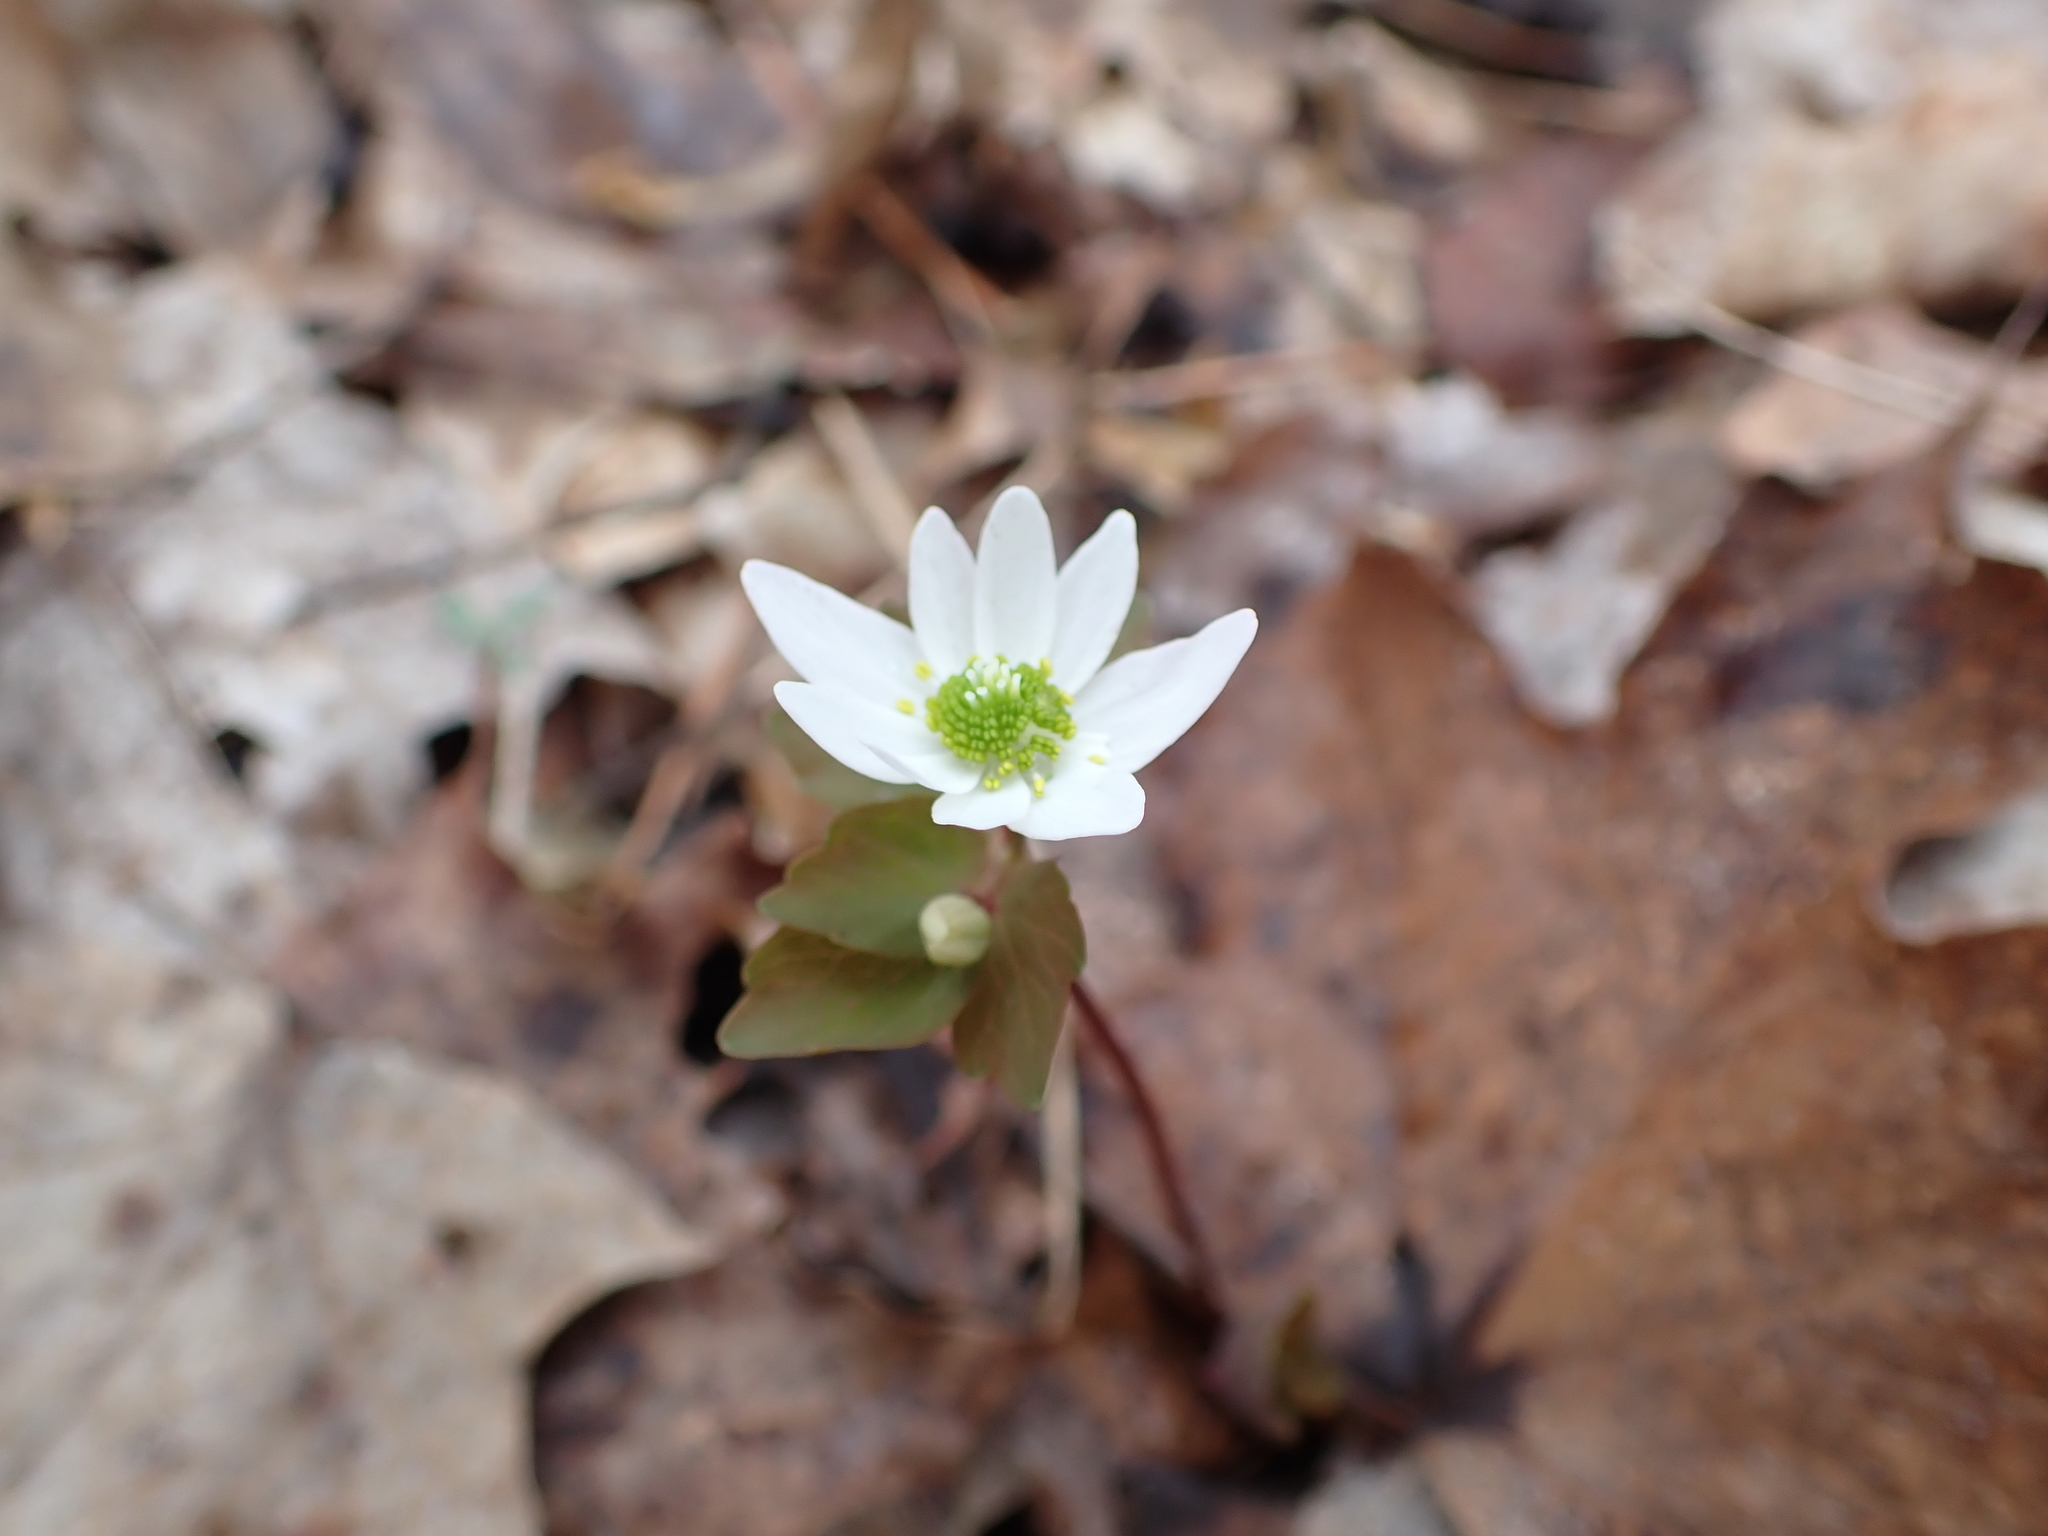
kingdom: Plantae
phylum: Tracheophyta
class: Magnoliopsida
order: Ranunculales
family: Ranunculaceae
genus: Thalictrum
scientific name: Thalictrum thalictroides
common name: Rue-anemone
